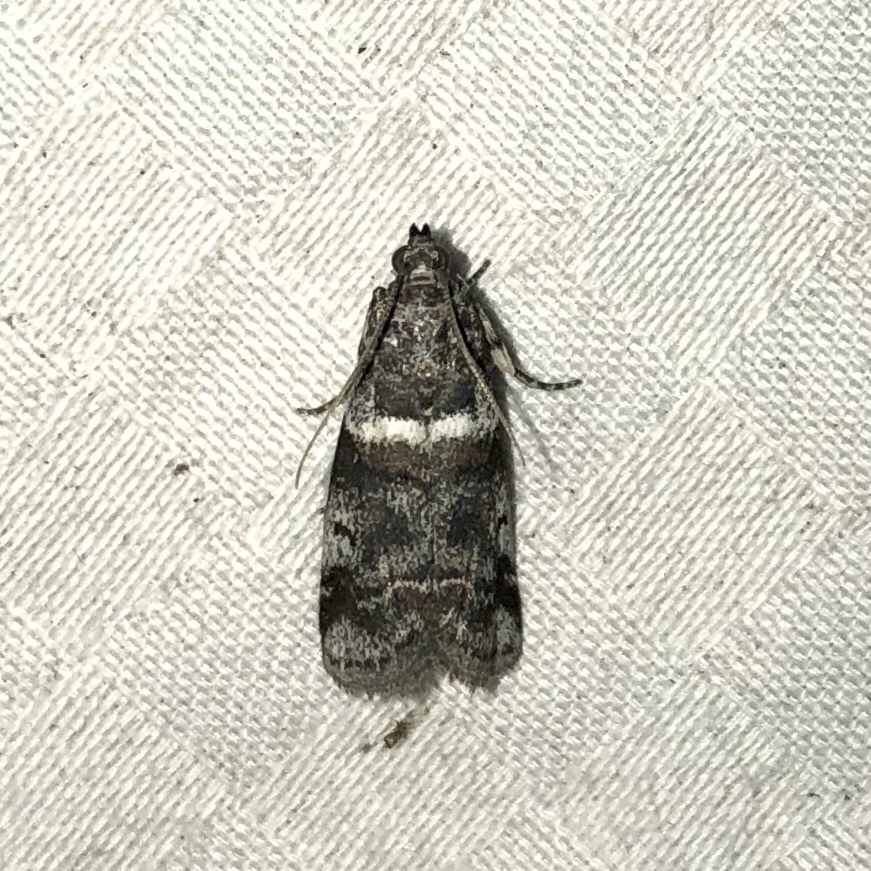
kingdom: Animalia
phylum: Arthropoda
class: Insecta
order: Lepidoptera
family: Pyralidae
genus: Acrobasis
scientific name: Acrobasis tricolorella
